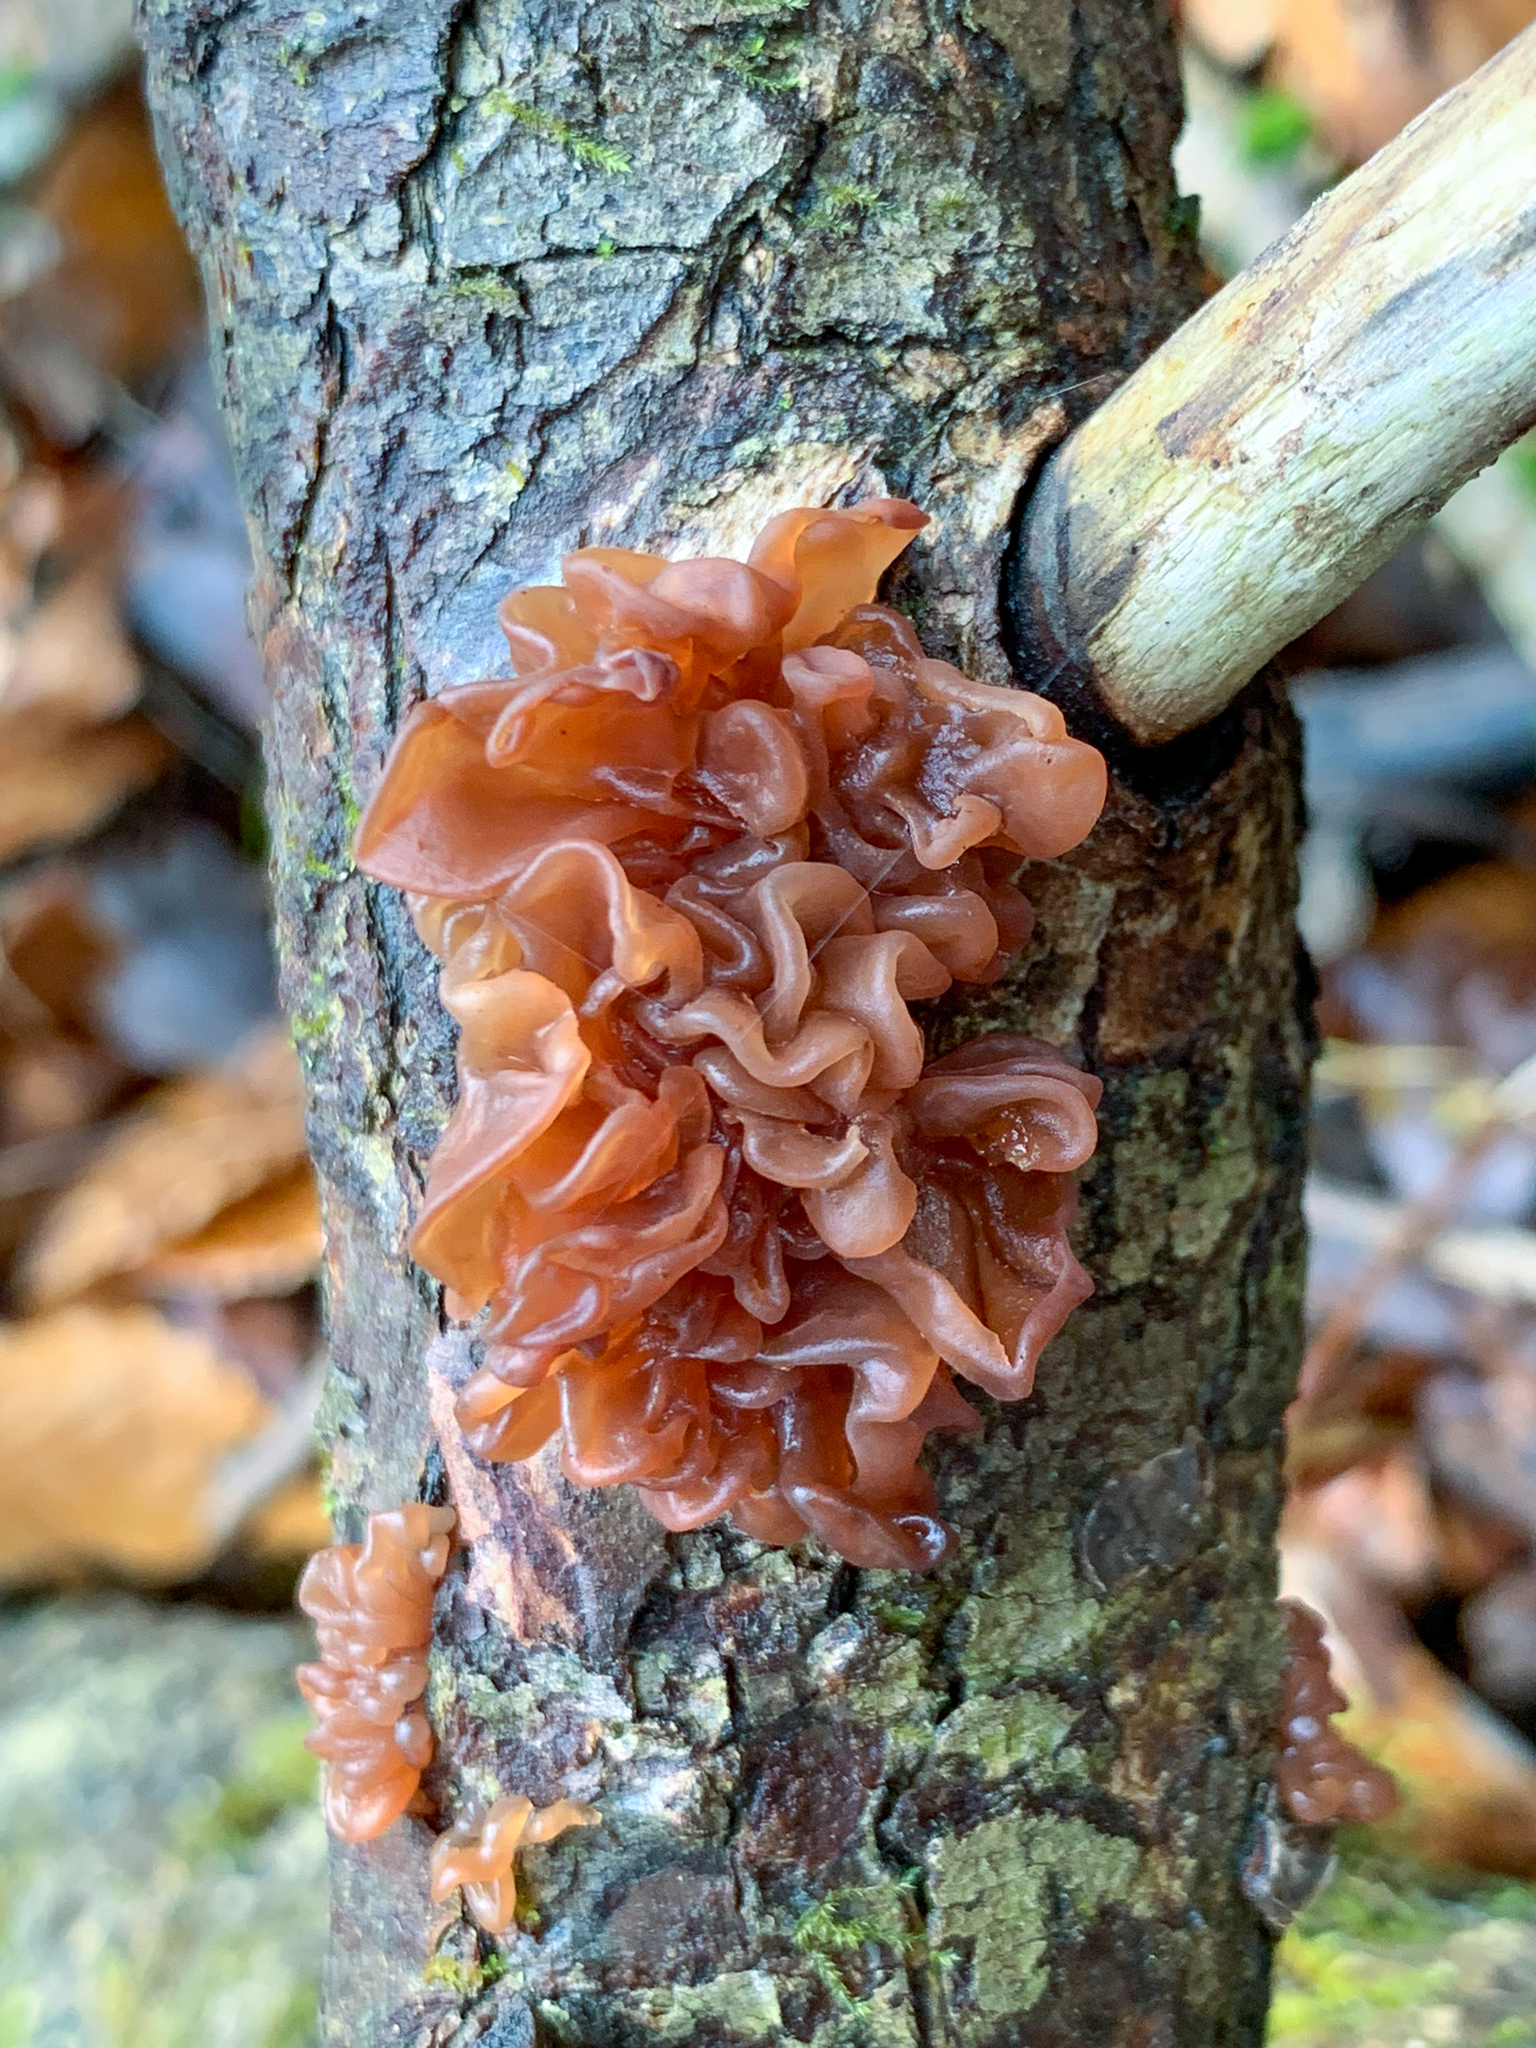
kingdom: Fungi
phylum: Basidiomycota
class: Tremellomycetes
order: Tremellales
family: Tremellaceae
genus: Phaeotremella
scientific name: Phaeotremella foliacea
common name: Leafy brain
